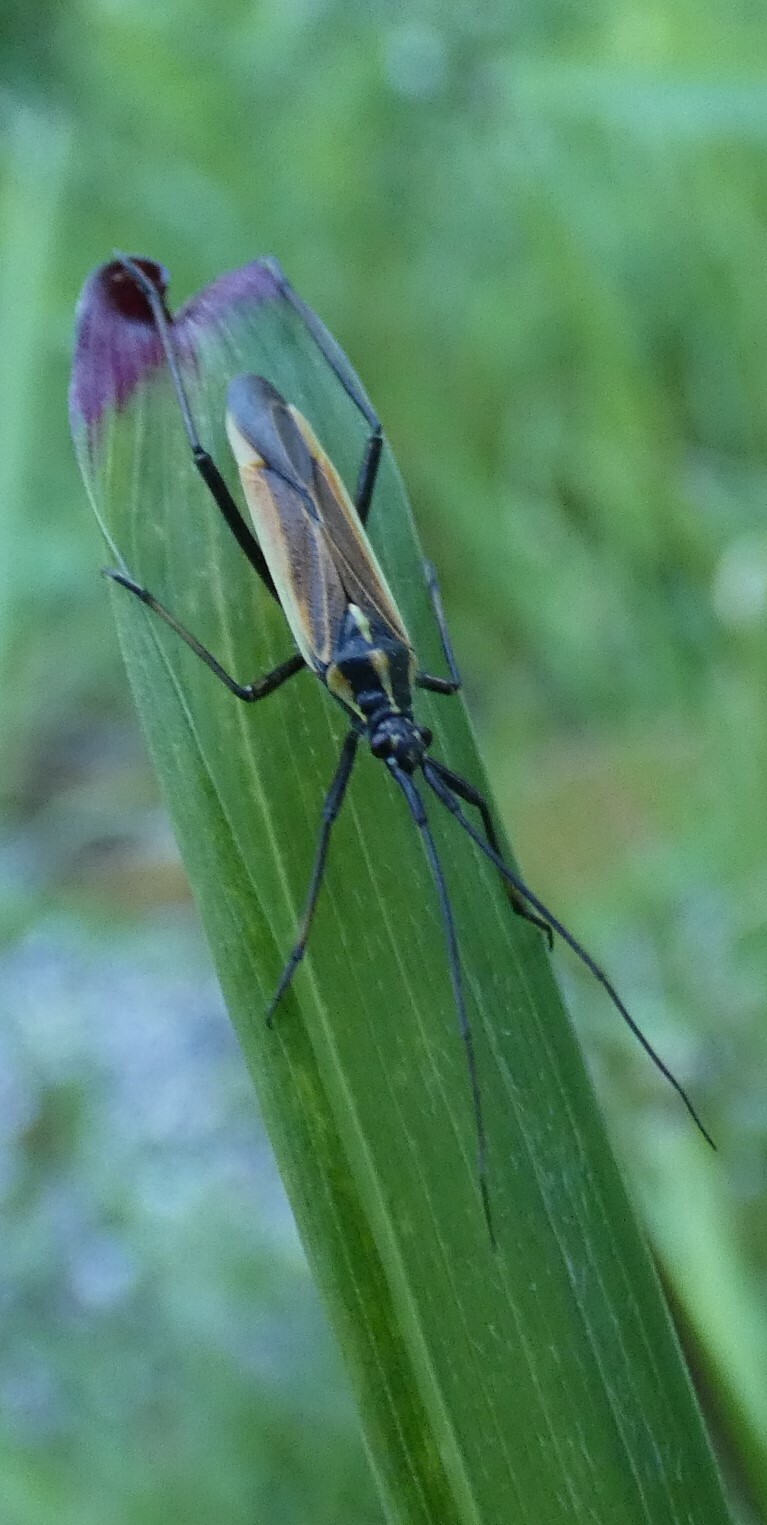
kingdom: Animalia
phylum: Arthropoda
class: Insecta
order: Hemiptera
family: Miridae
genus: Leptopterna
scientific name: Leptopterna dolabrata
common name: Meadow plant bug
